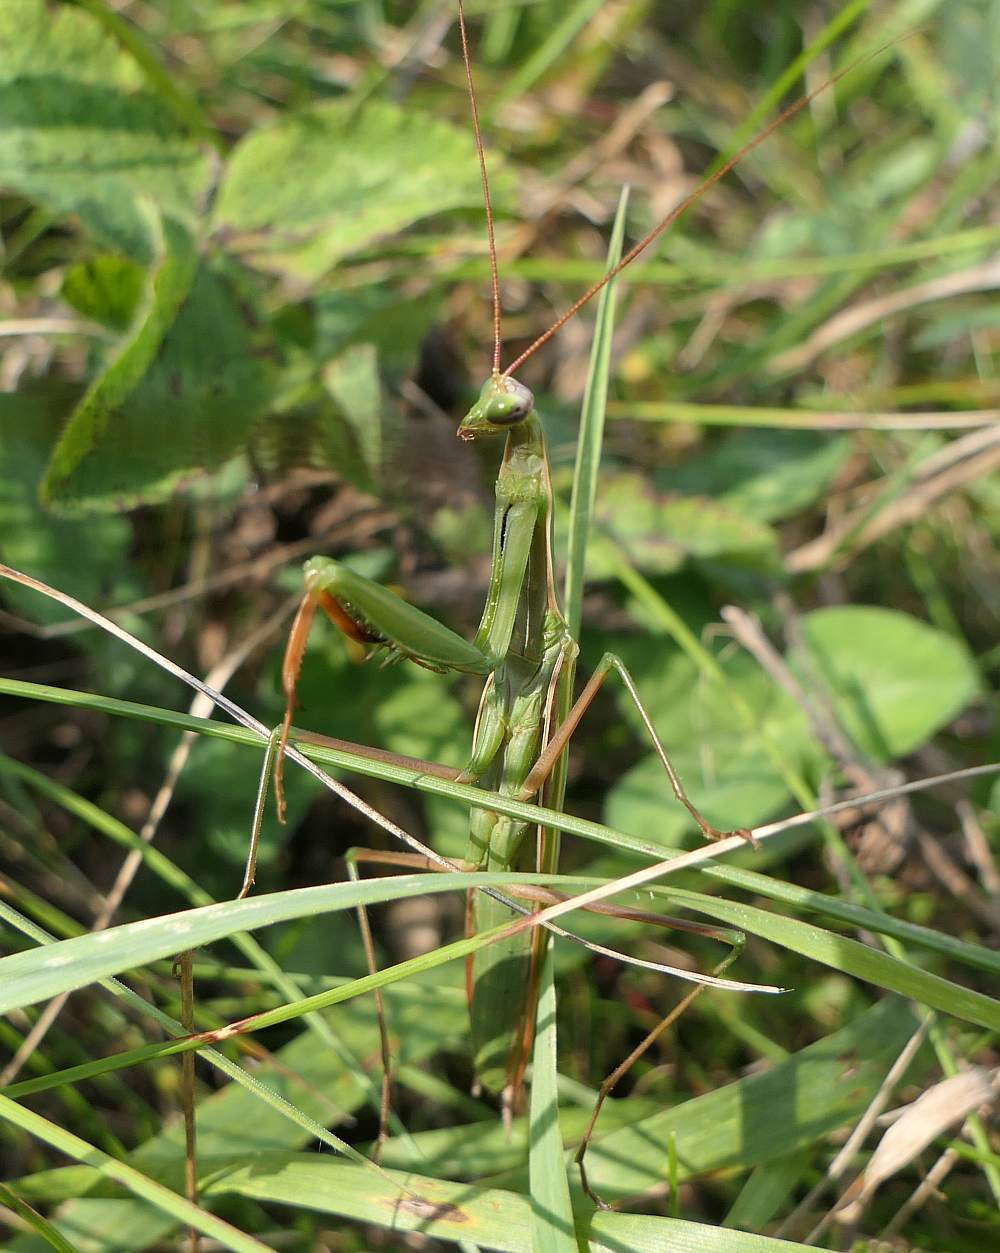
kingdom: Animalia
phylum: Arthropoda
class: Insecta
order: Mantodea
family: Mantidae
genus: Mantis
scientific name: Mantis religiosa
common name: Praying mantis
